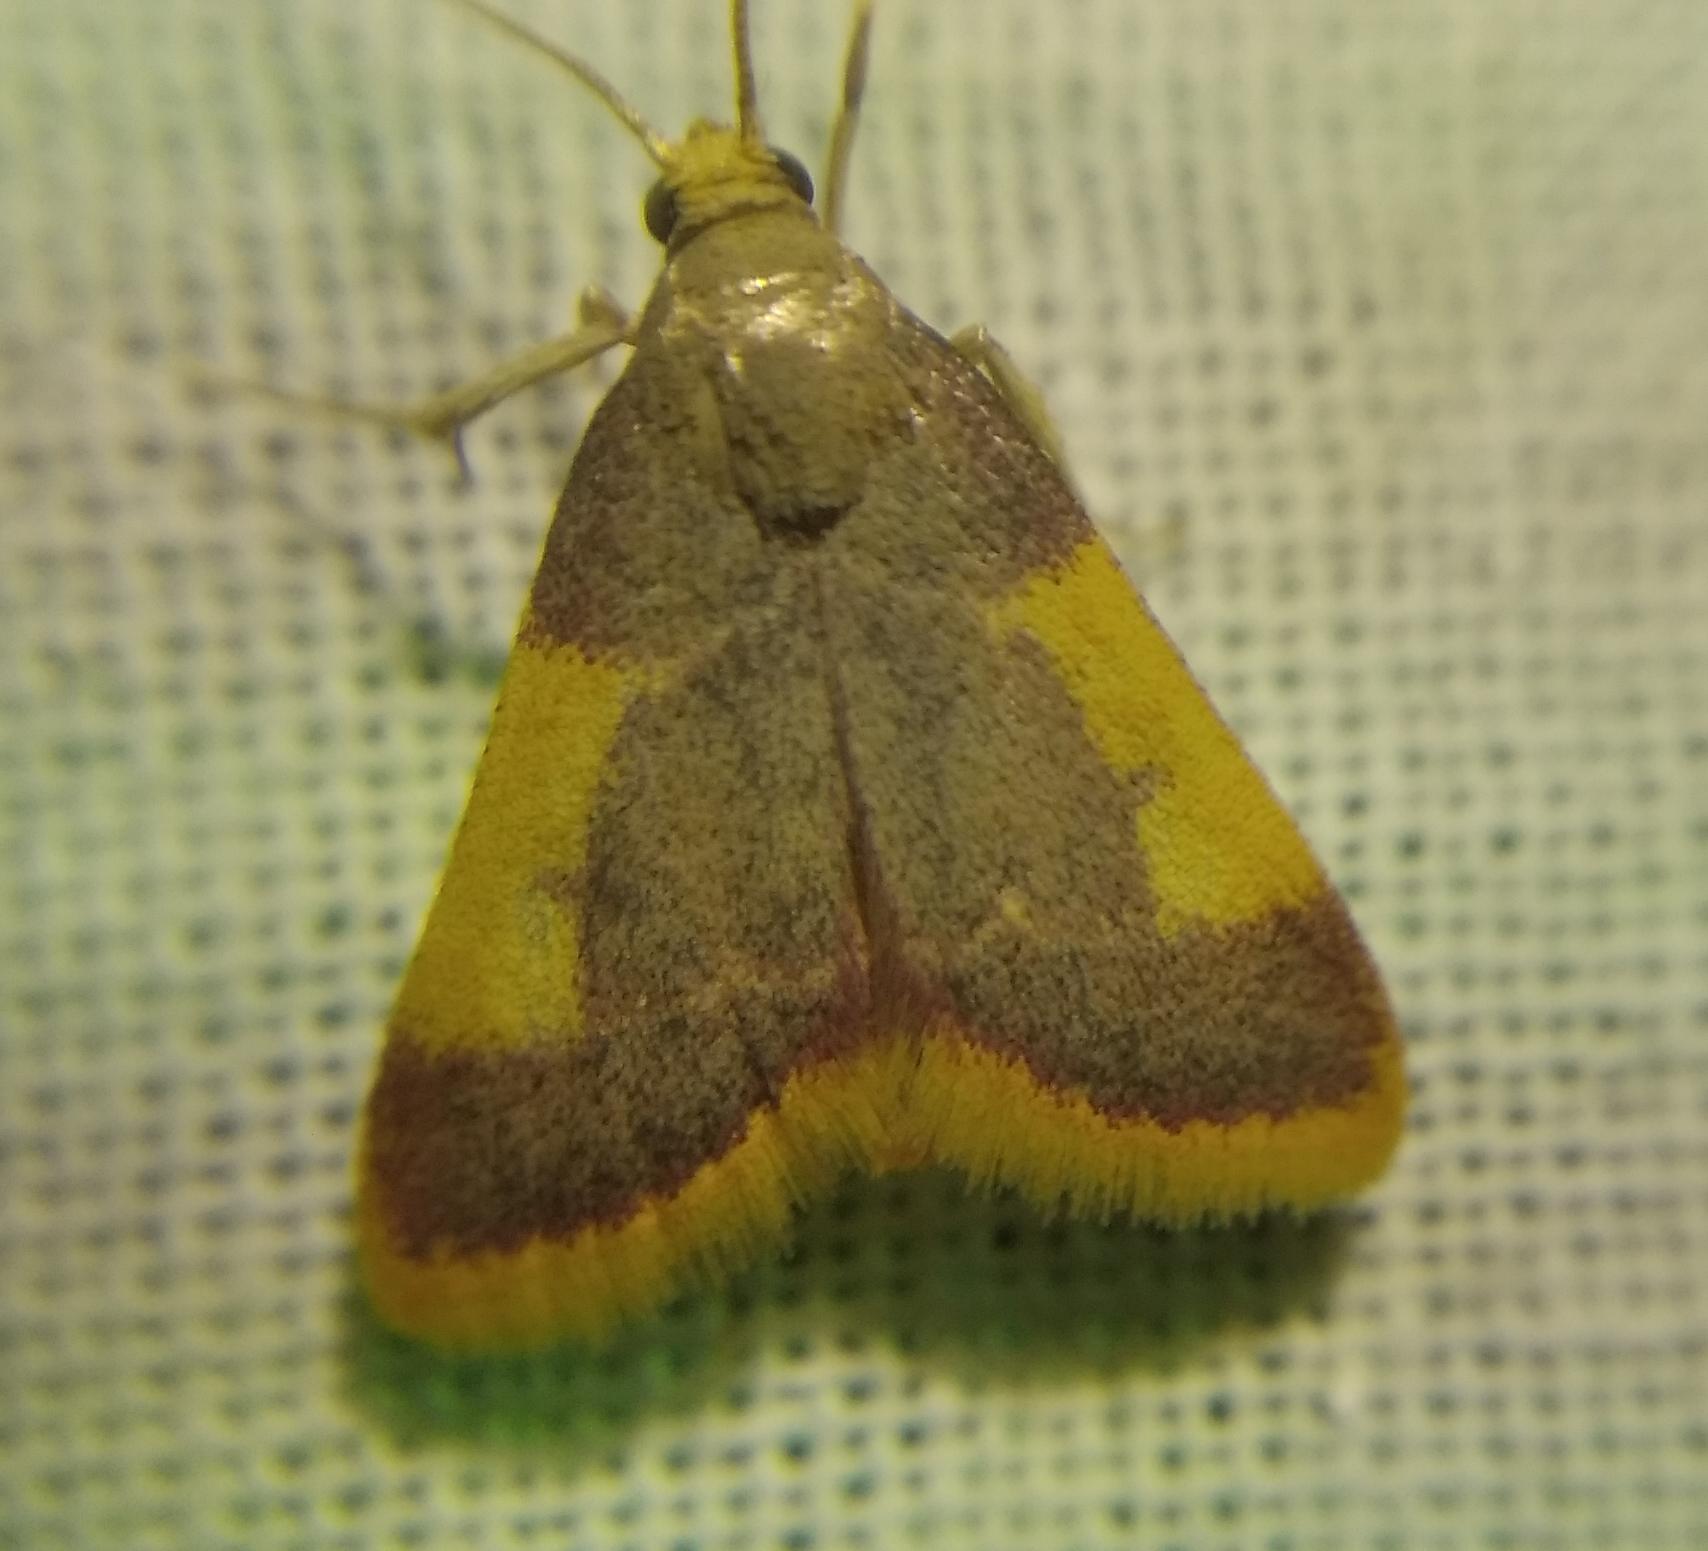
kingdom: Animalia
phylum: Arthropoda
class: Insecta
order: Lepidoptera
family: Pyralidae
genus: Hypsopygia
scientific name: Hypsopygia costalis
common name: Gold triangle
